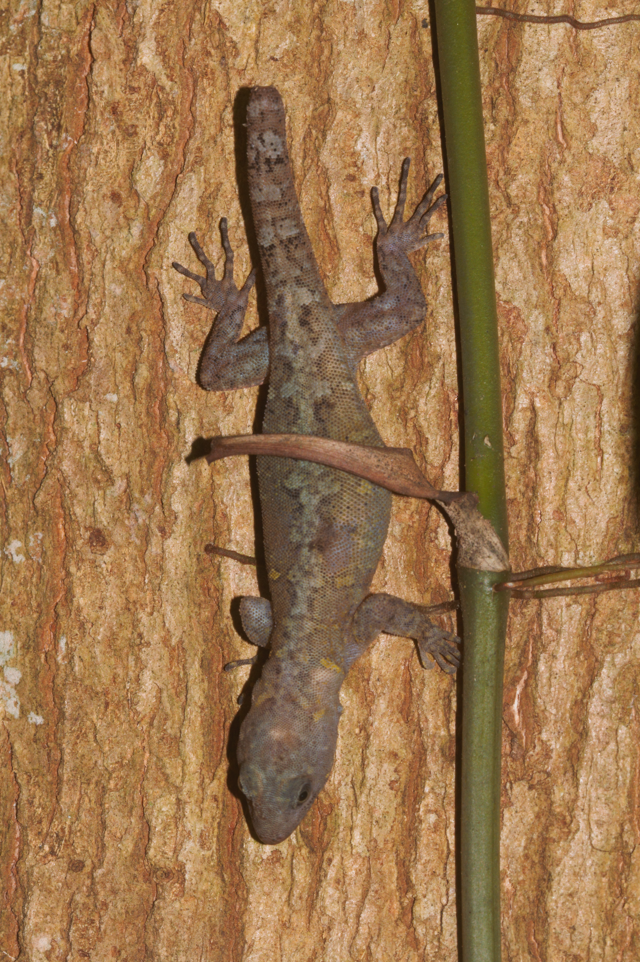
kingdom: Animalia
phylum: Chordata
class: Squamata
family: Sphaerodactylidae
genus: Gonatodes
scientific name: Gonatodes humeralis
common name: South american clawed gecko
